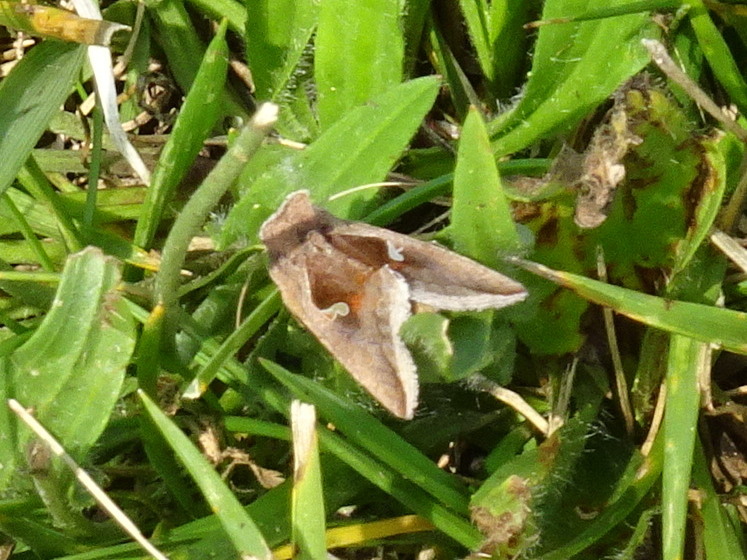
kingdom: Animalia
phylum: Arthropoda
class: Insecta
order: Lepidoptera
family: Noctuidae
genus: Anagrapha
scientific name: Anagrapha falcifera
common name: Celery looper
